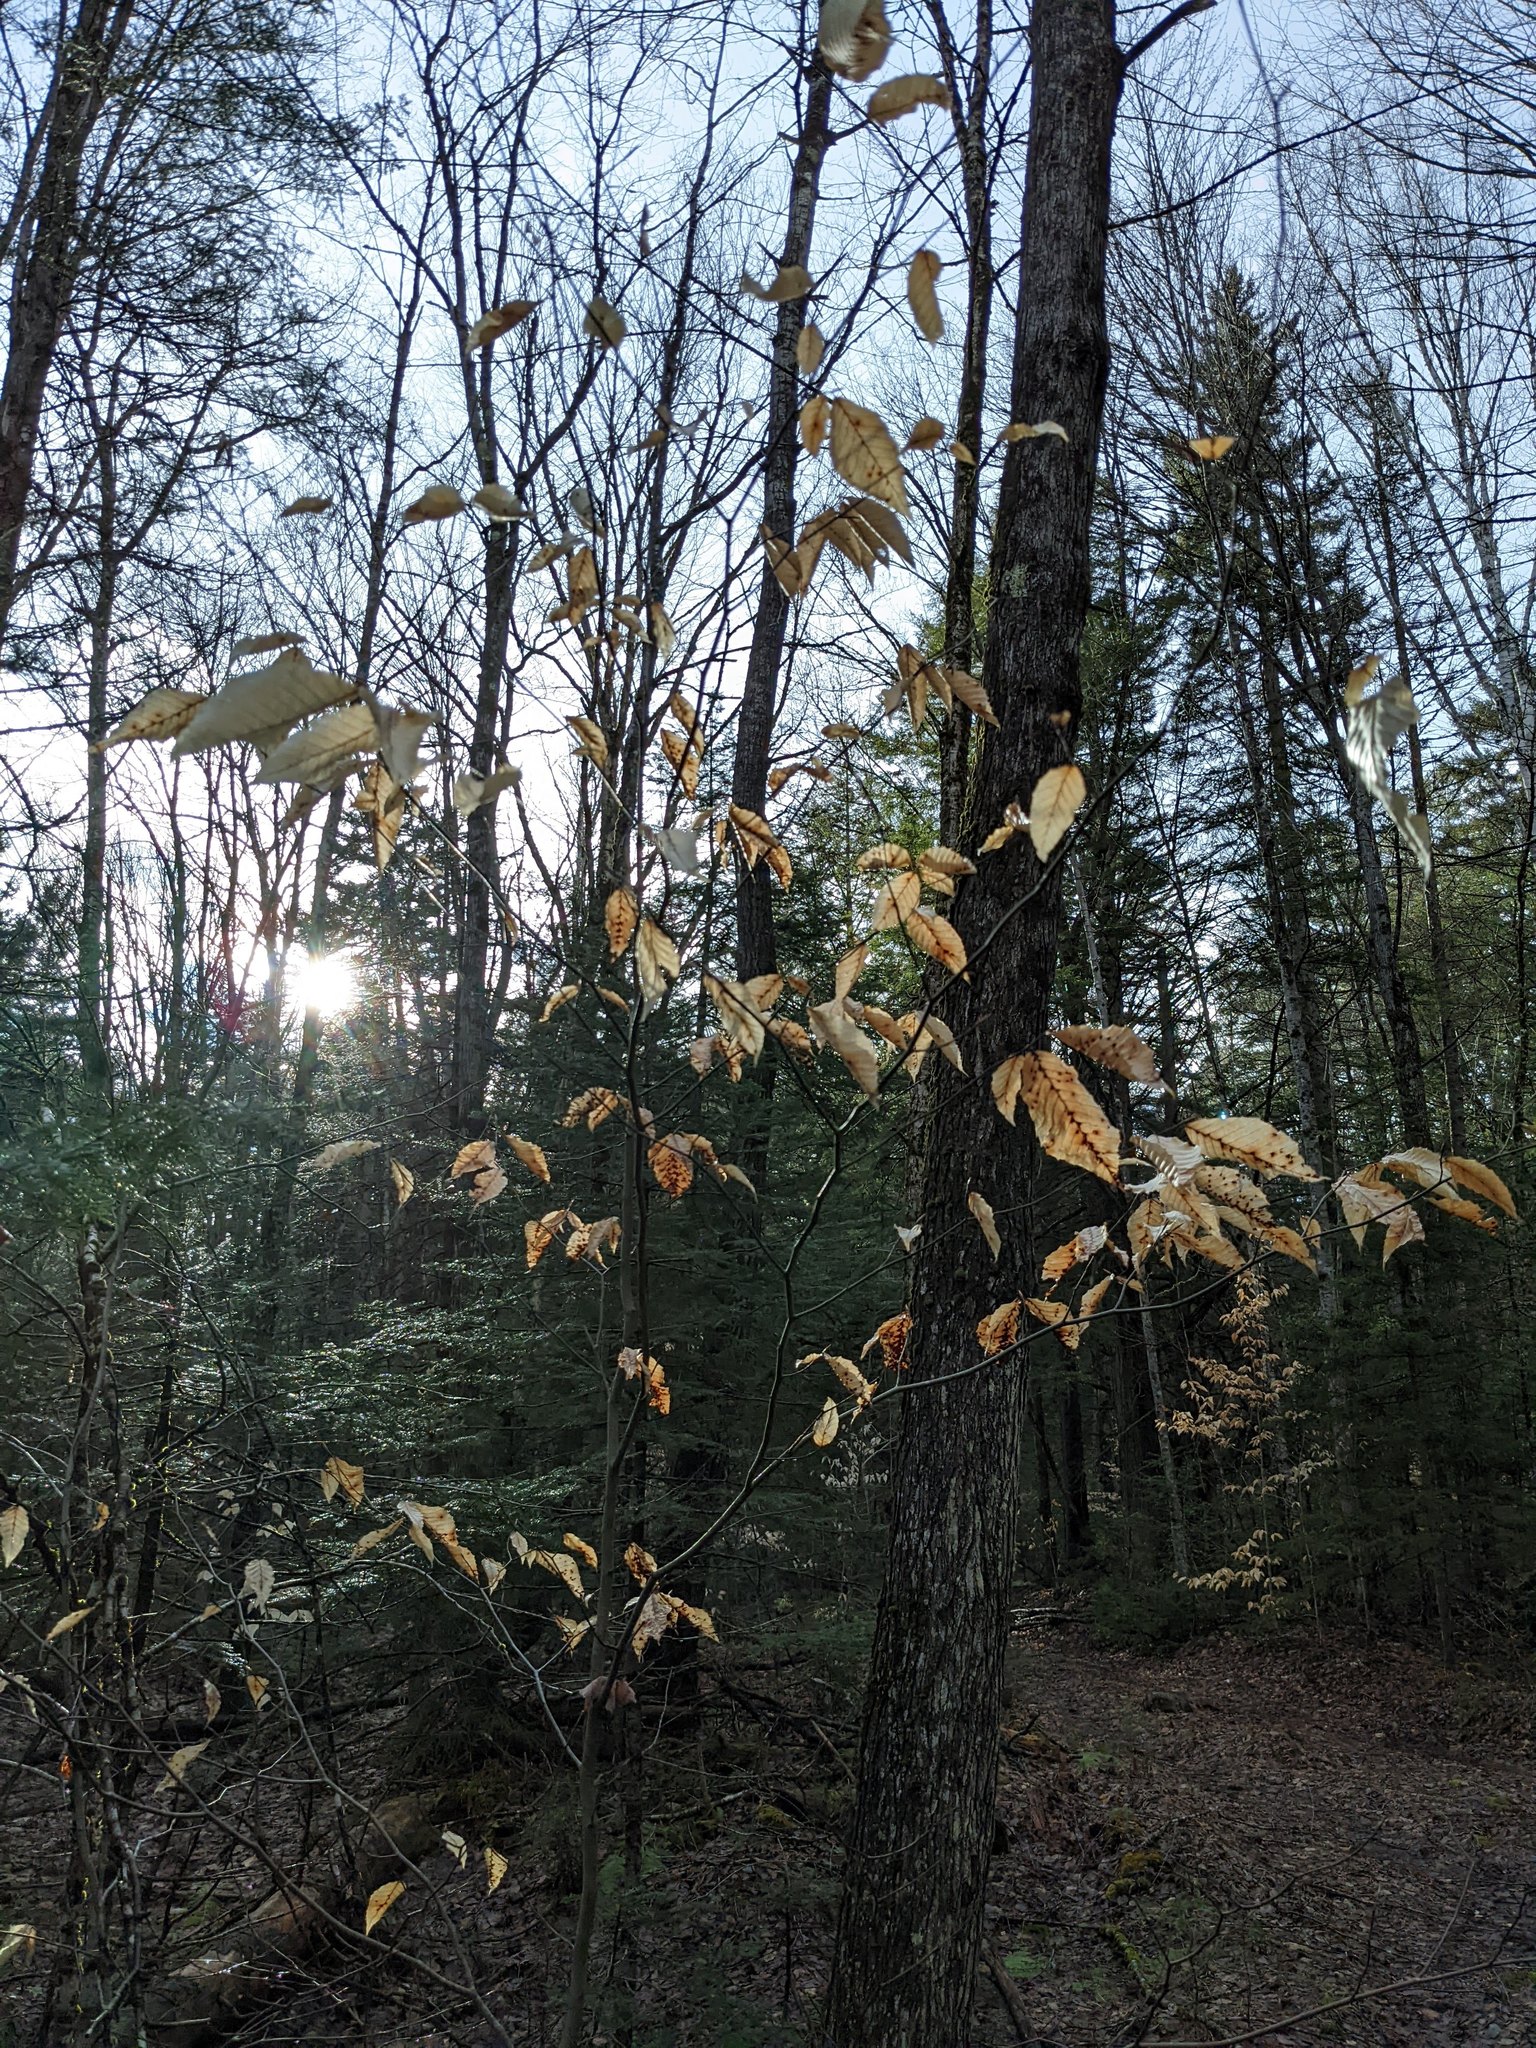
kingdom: Plantae
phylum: Tracheophyta
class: Magnoliopsida
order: Fagales
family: Fagaceae
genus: Fagus
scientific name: Fagus grandifolia
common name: American beech
